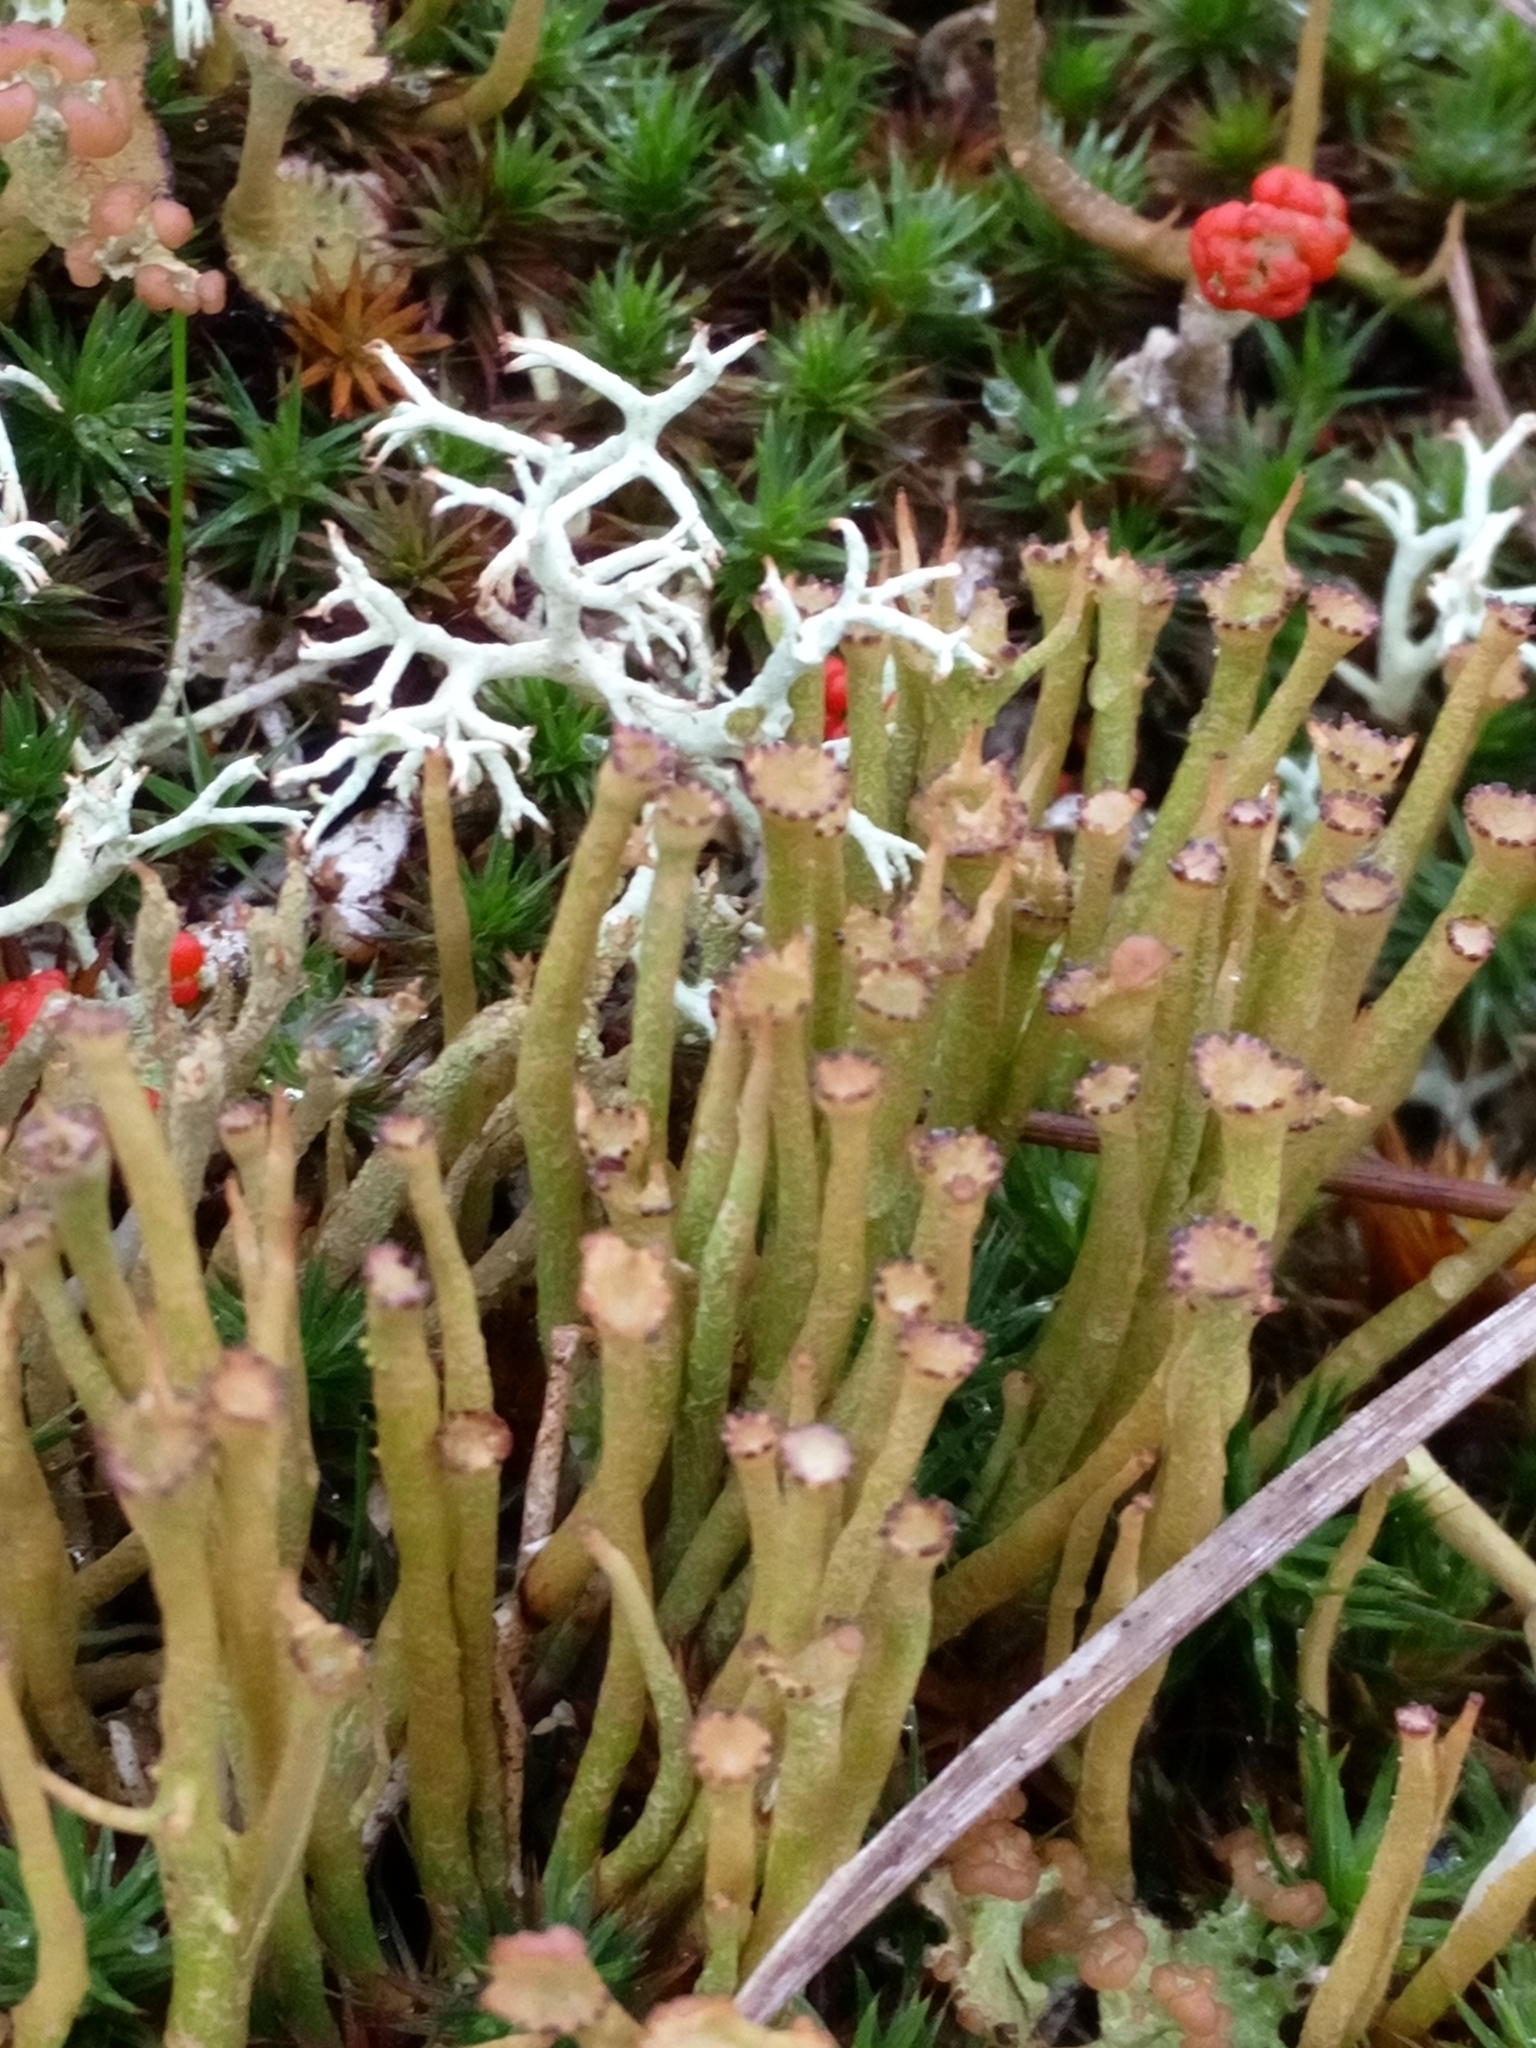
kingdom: Fungi
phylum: Ascomycota
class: Lecanoromycetes
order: Lecanorales
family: Cladoniaceae
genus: Cladonia
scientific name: Cladonia gracilis
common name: Smooth clad lichen
